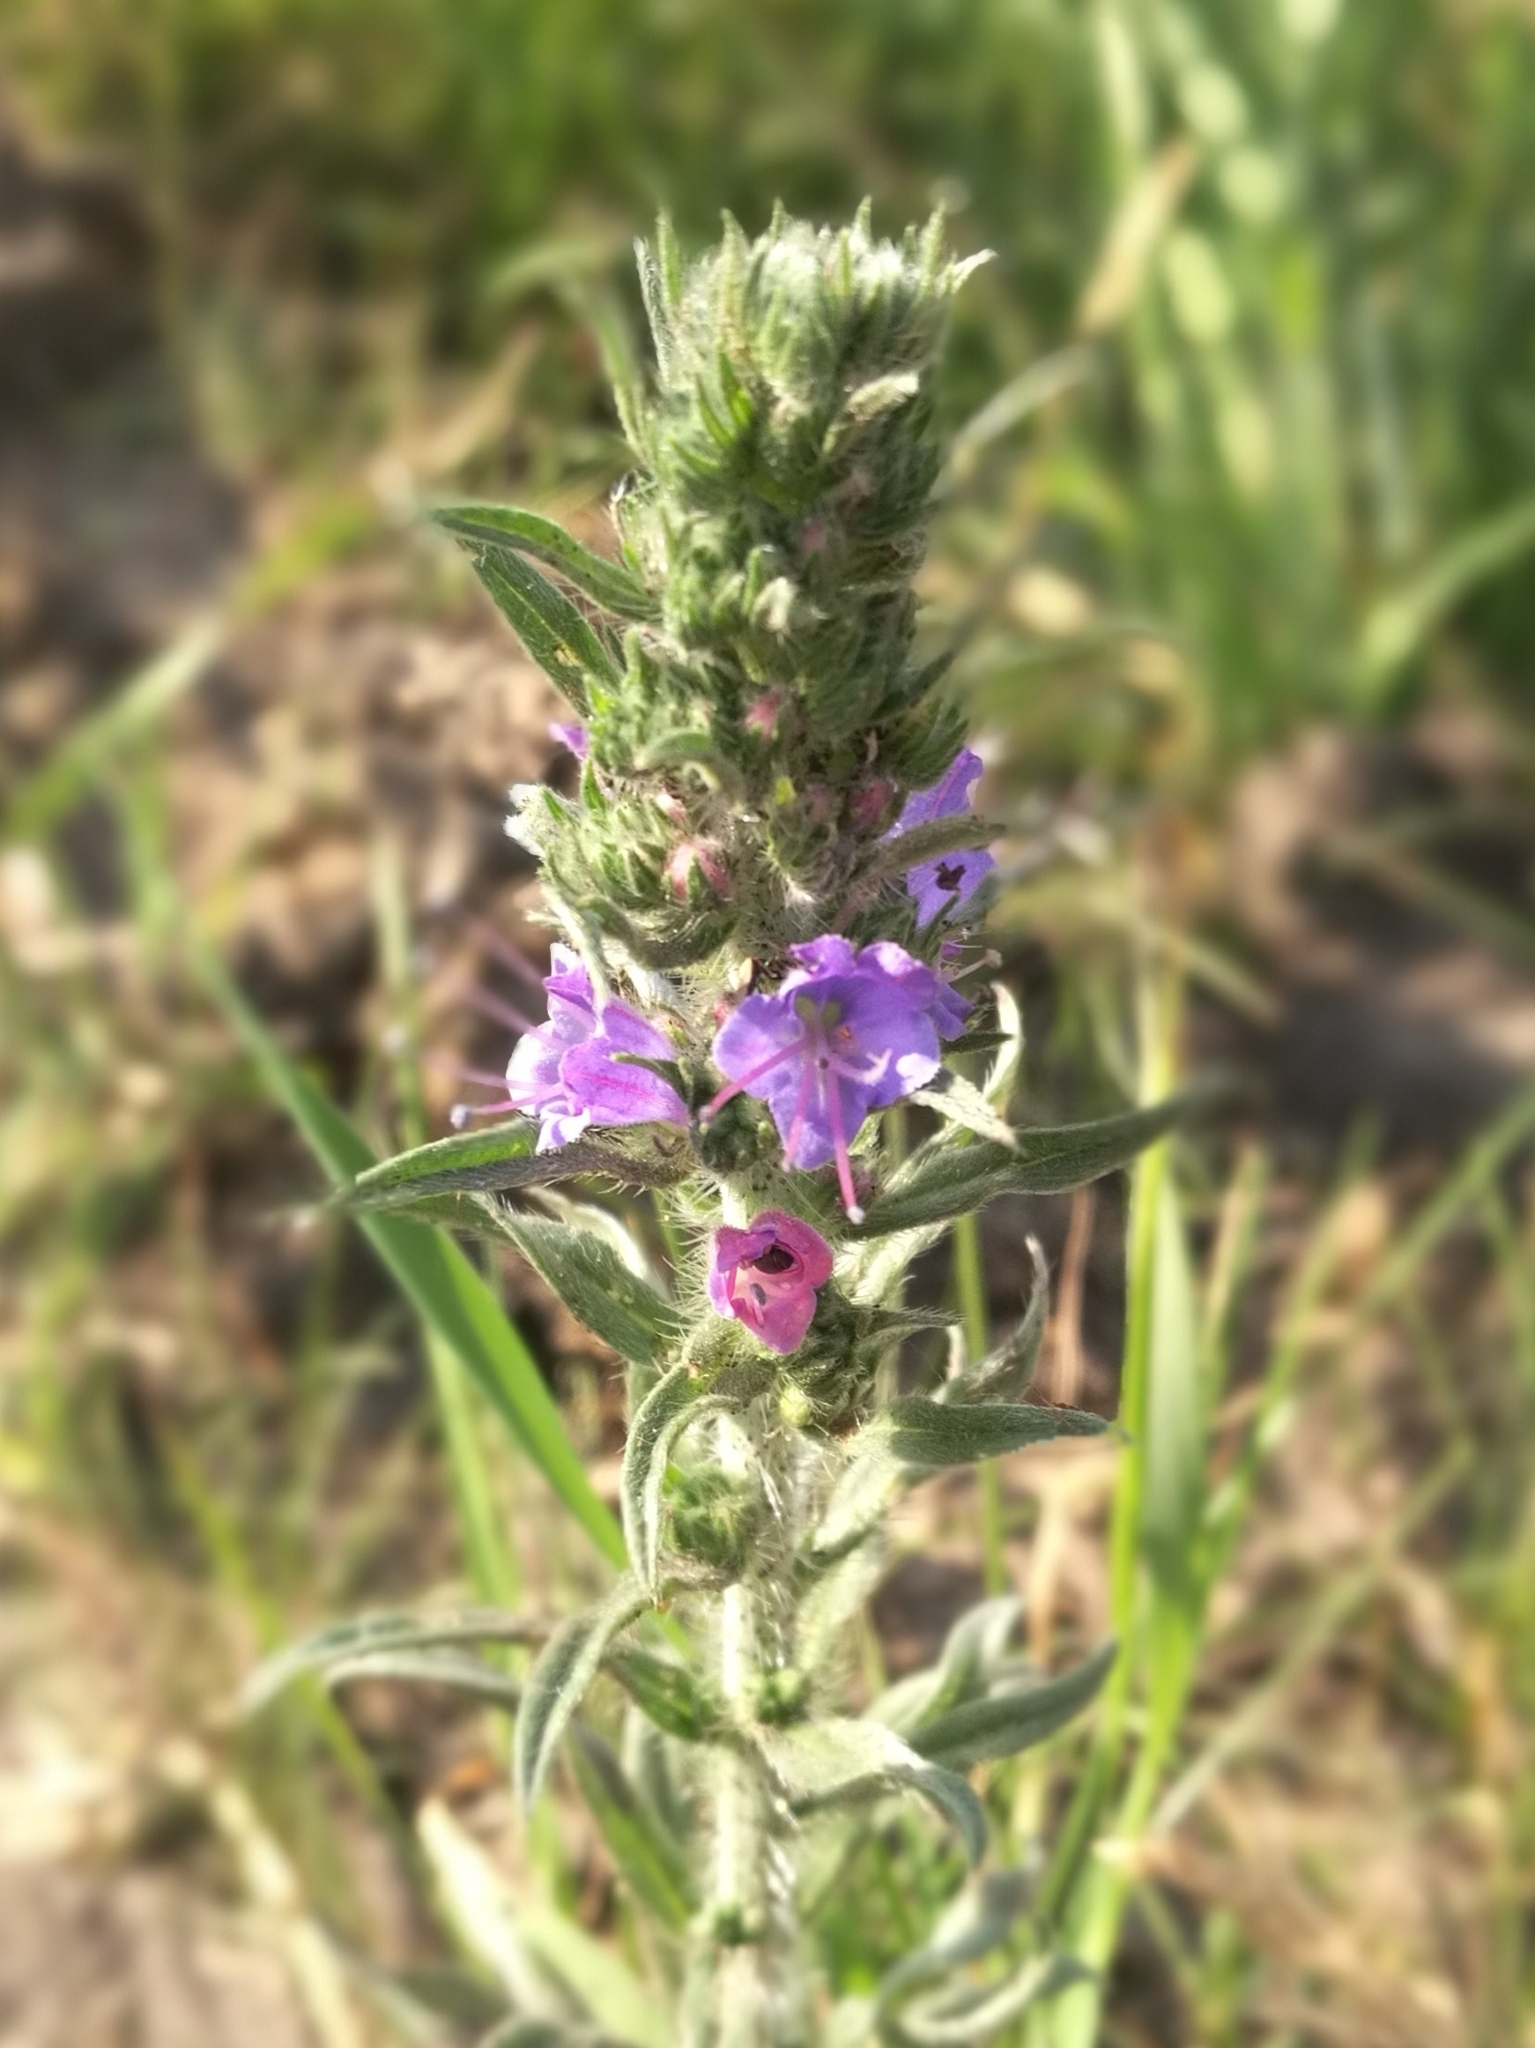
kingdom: Plantae
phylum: Tracheophyta
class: Magnoliopsida
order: Boraginales
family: Boraginaceae
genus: Echium
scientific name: Echium vulgare
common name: Common viper's bugloss
